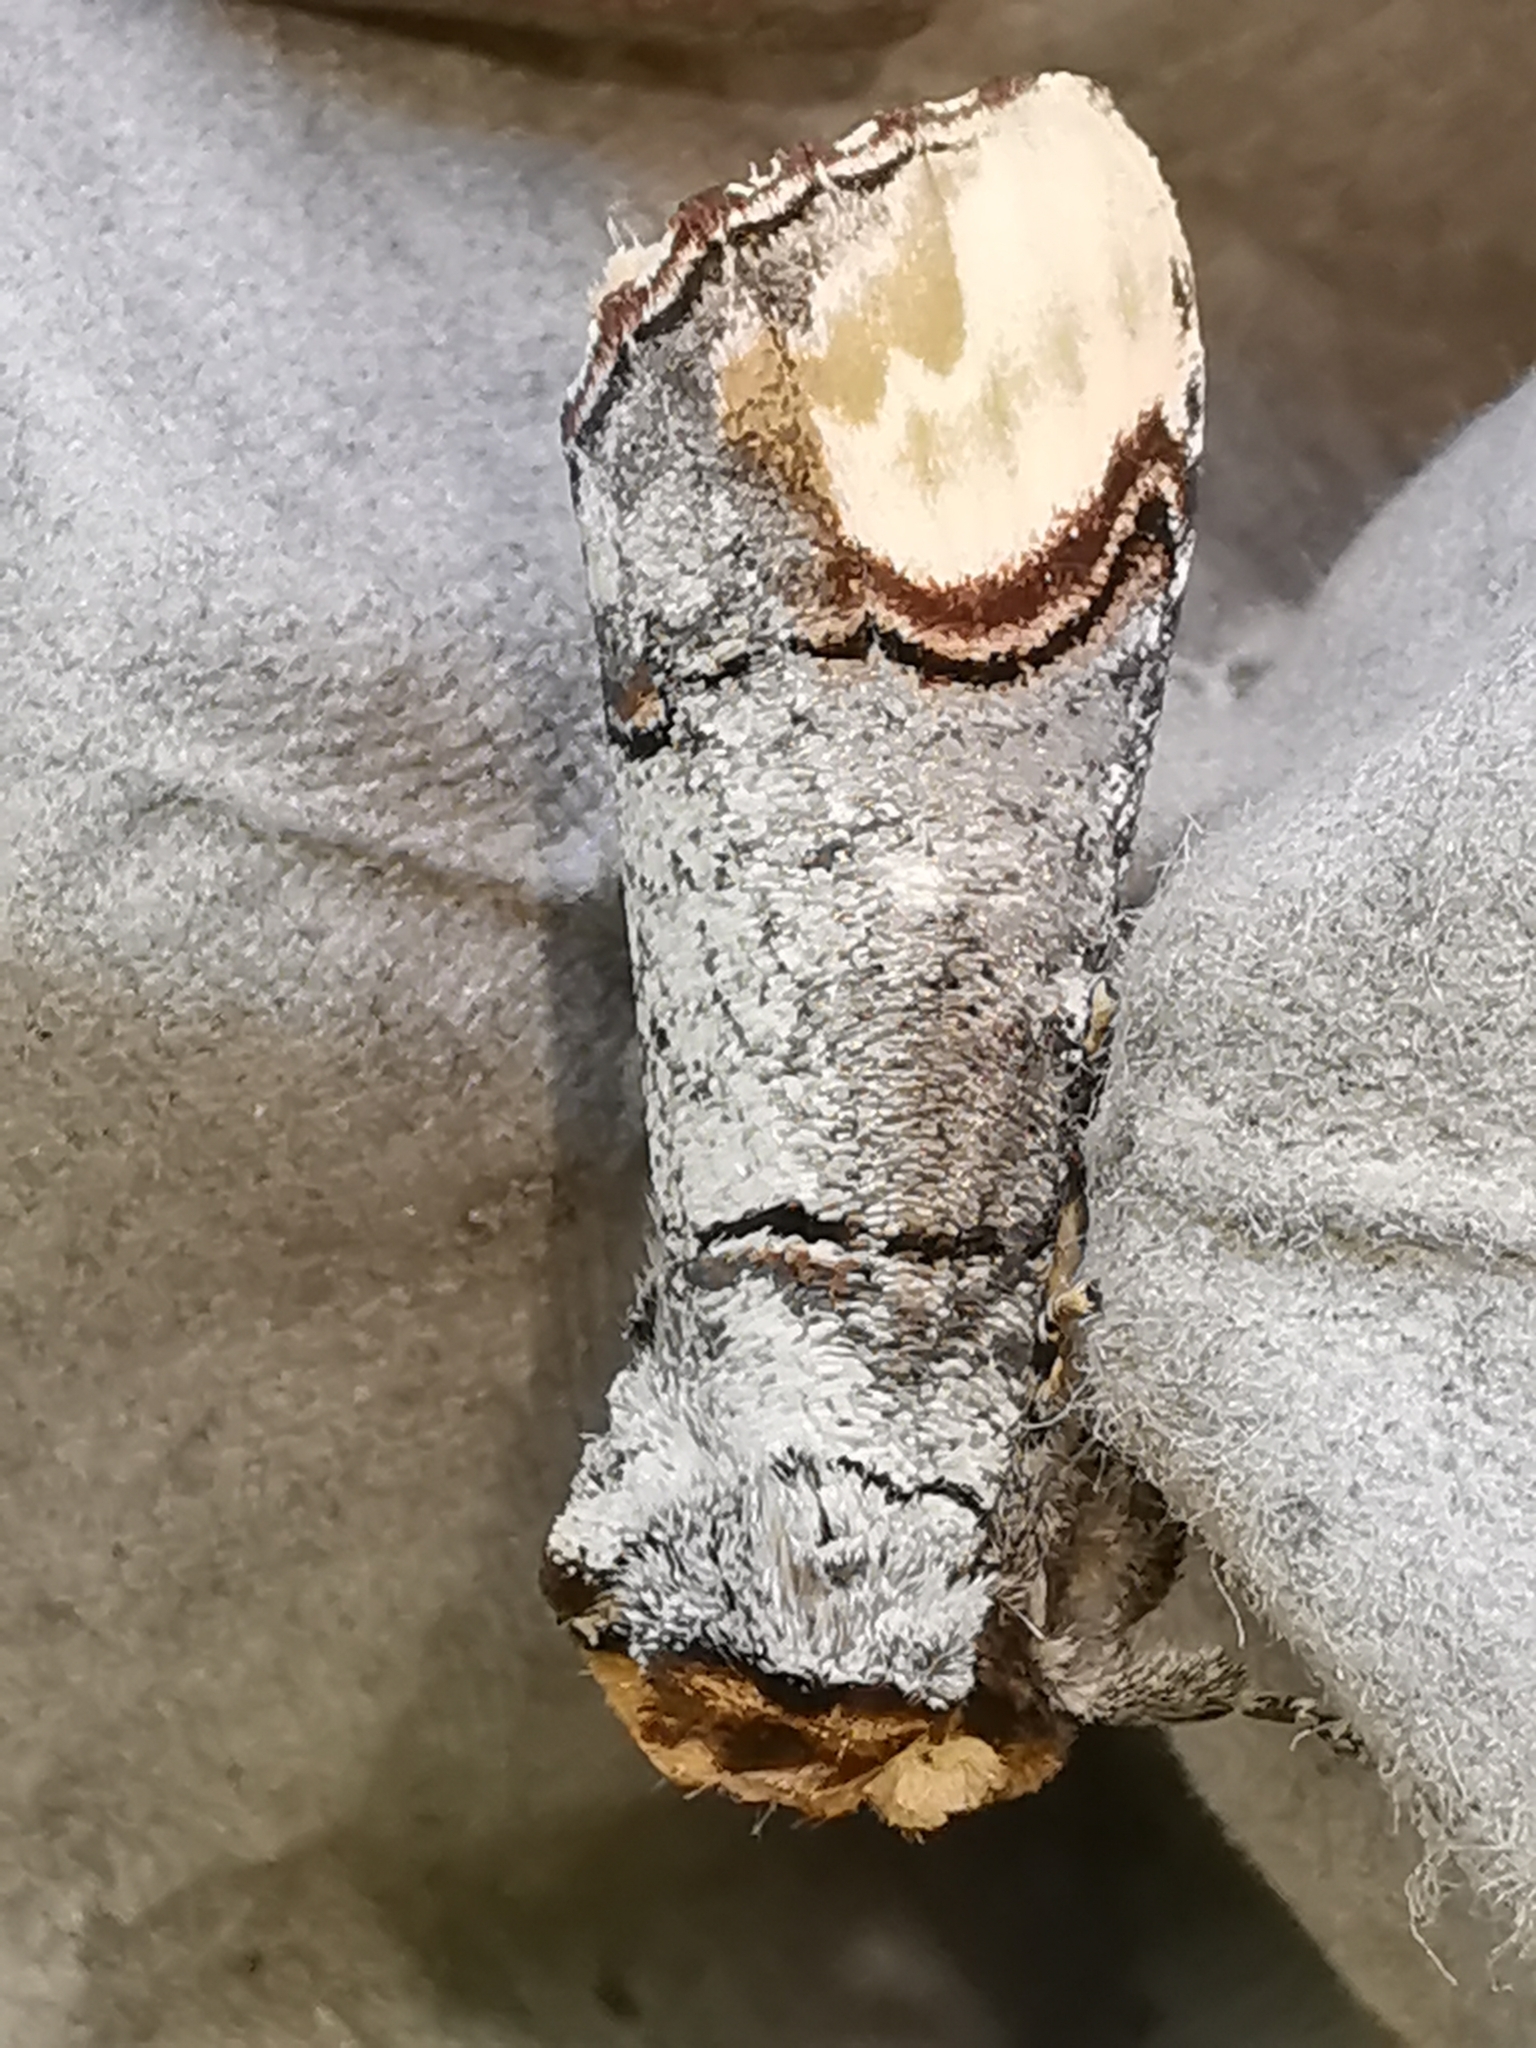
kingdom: Animalia
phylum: Arthropoda
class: Insecta
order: Lepidoptera
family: Notodontidae
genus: Phalera
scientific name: Phalera bucephala
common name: Buff-tip
